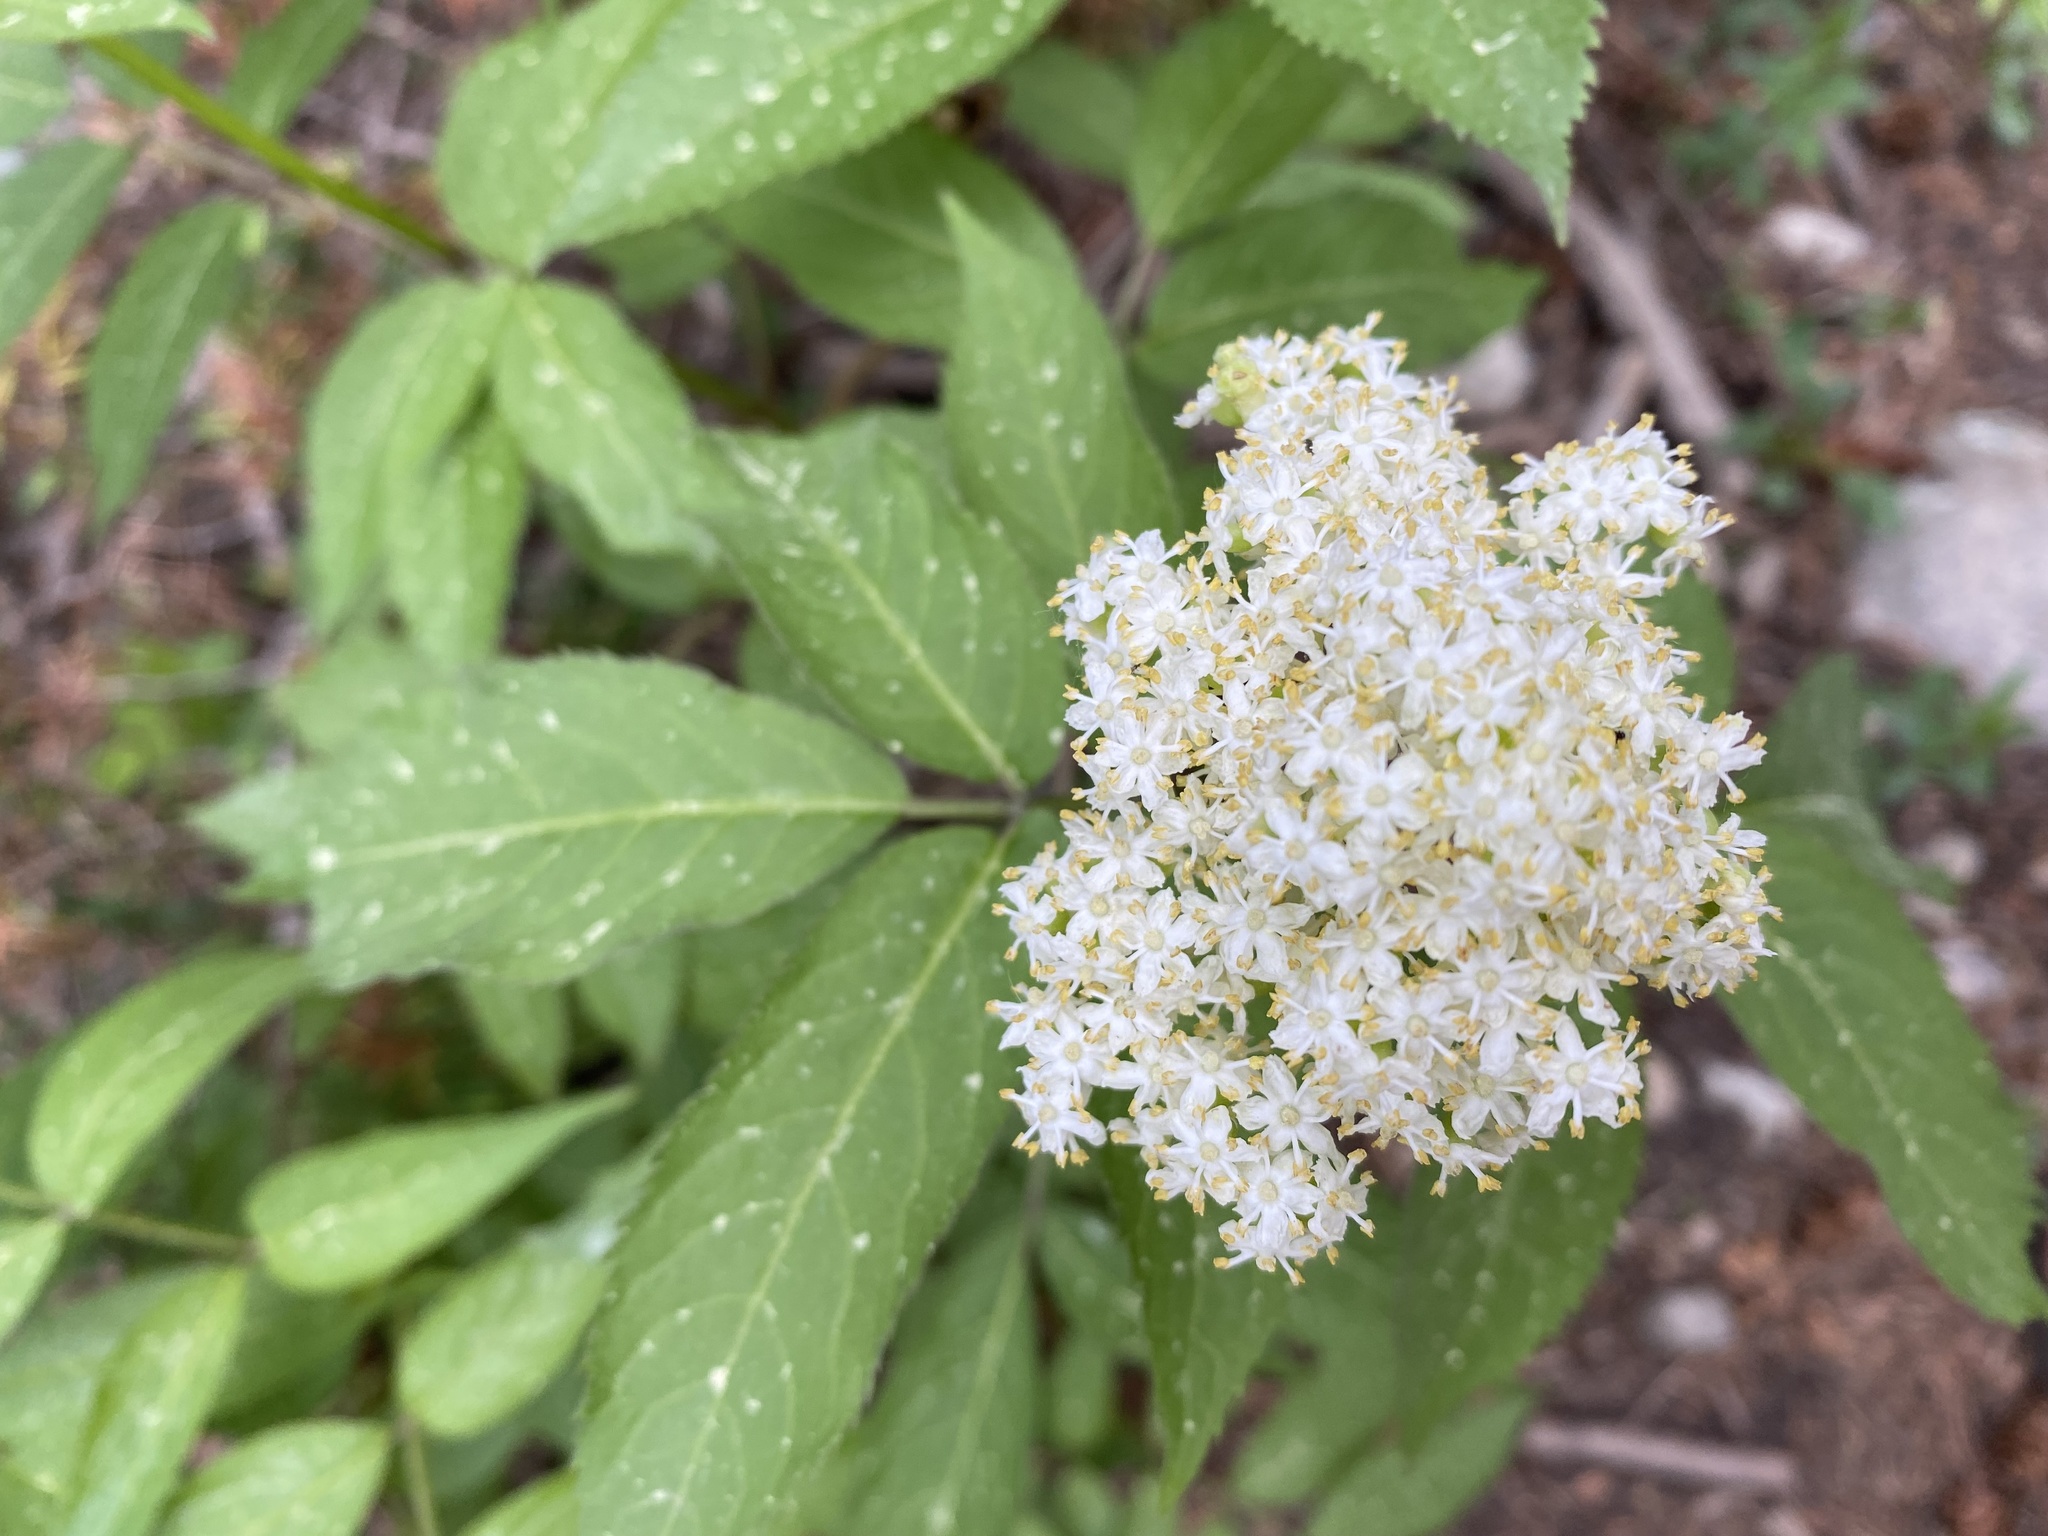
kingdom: Plantae
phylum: Tracheophyta
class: Magnoliopsida
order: Dipsacales
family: Viburnaceae
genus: Sambucus
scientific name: Sambucus racemosa
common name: Red-berried elder
